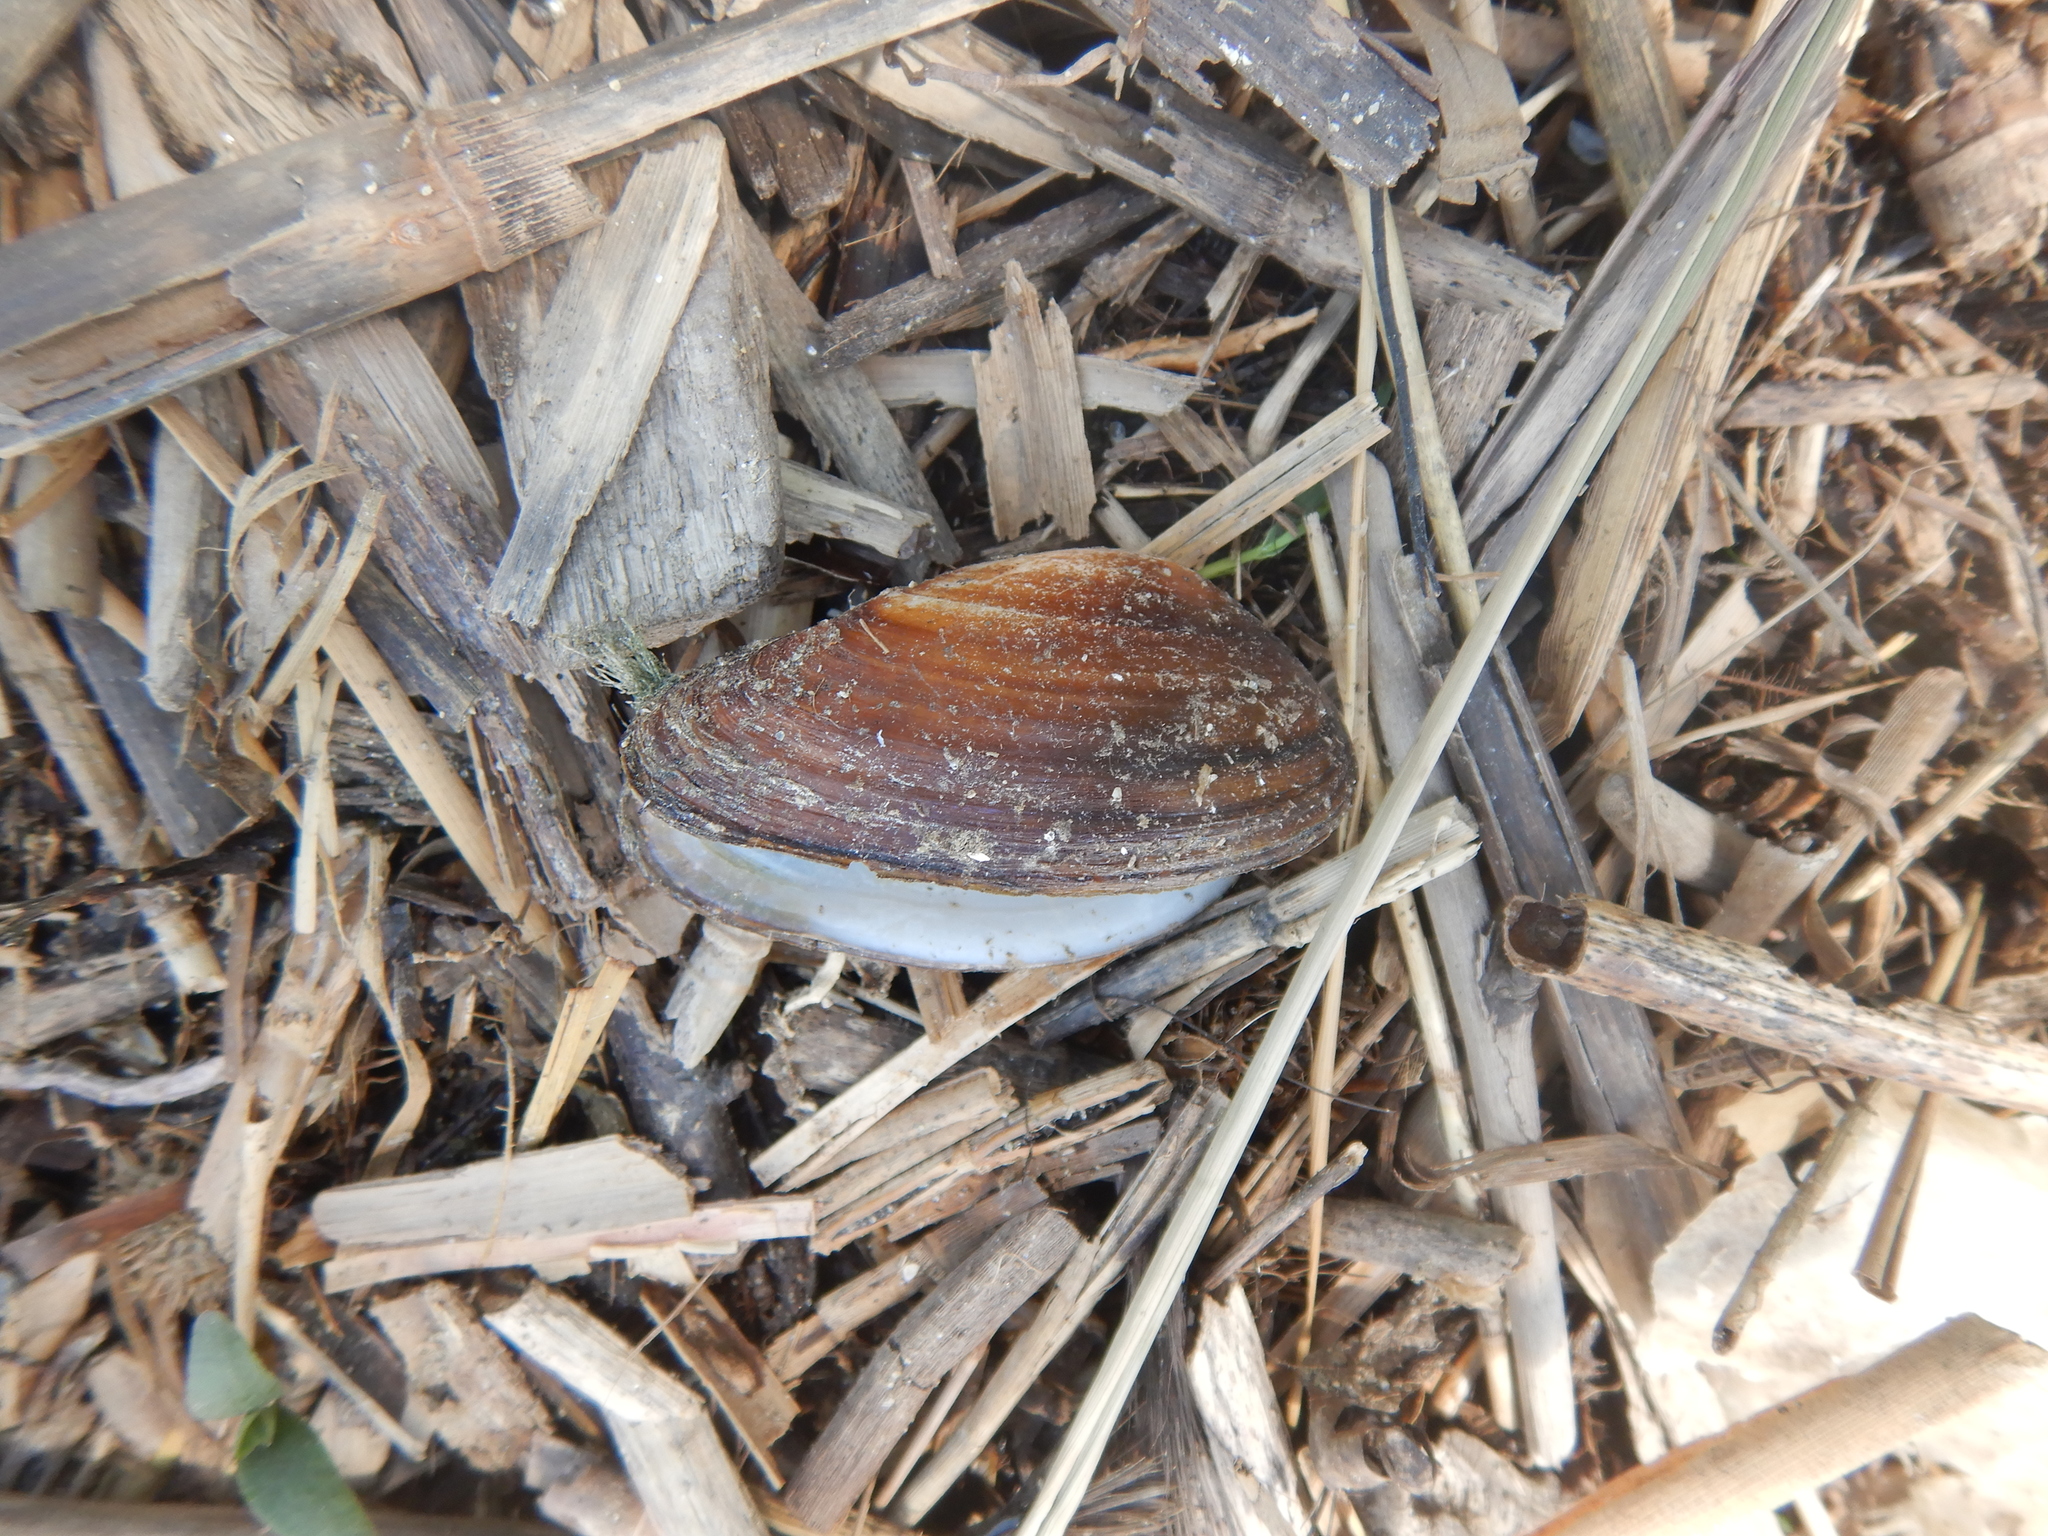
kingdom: Animalia
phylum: Mollusca
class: Bivalvia
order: Unionida
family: Unionidae
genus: Unio
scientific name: Unio pictorum
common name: Painter's mussel
